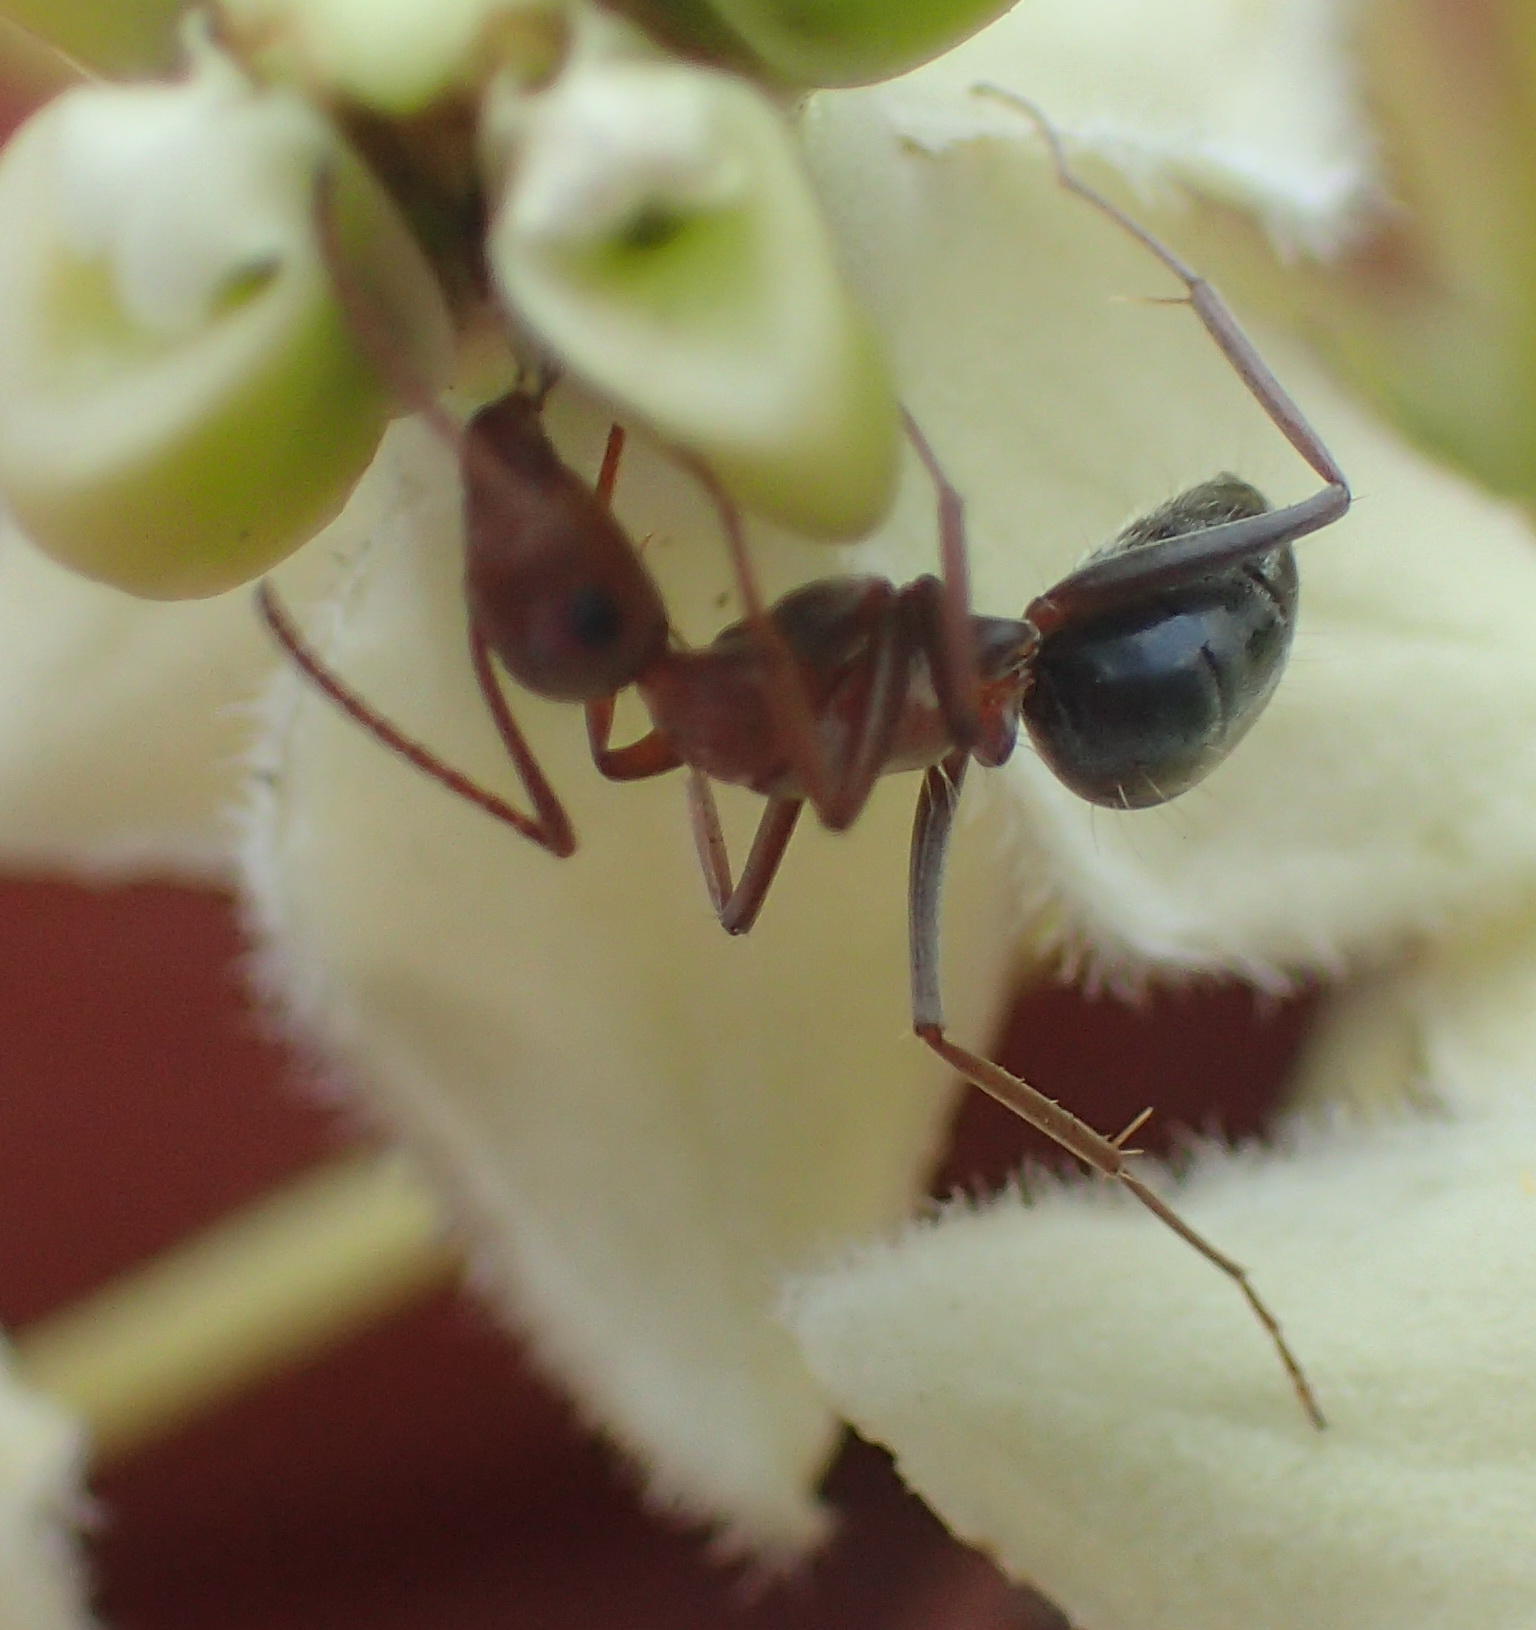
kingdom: Animalia
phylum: Arthropoda
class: Insecta
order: Hymenoptera
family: Formicidae
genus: Anoplolepis
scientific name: Anoplolepis custodiens
